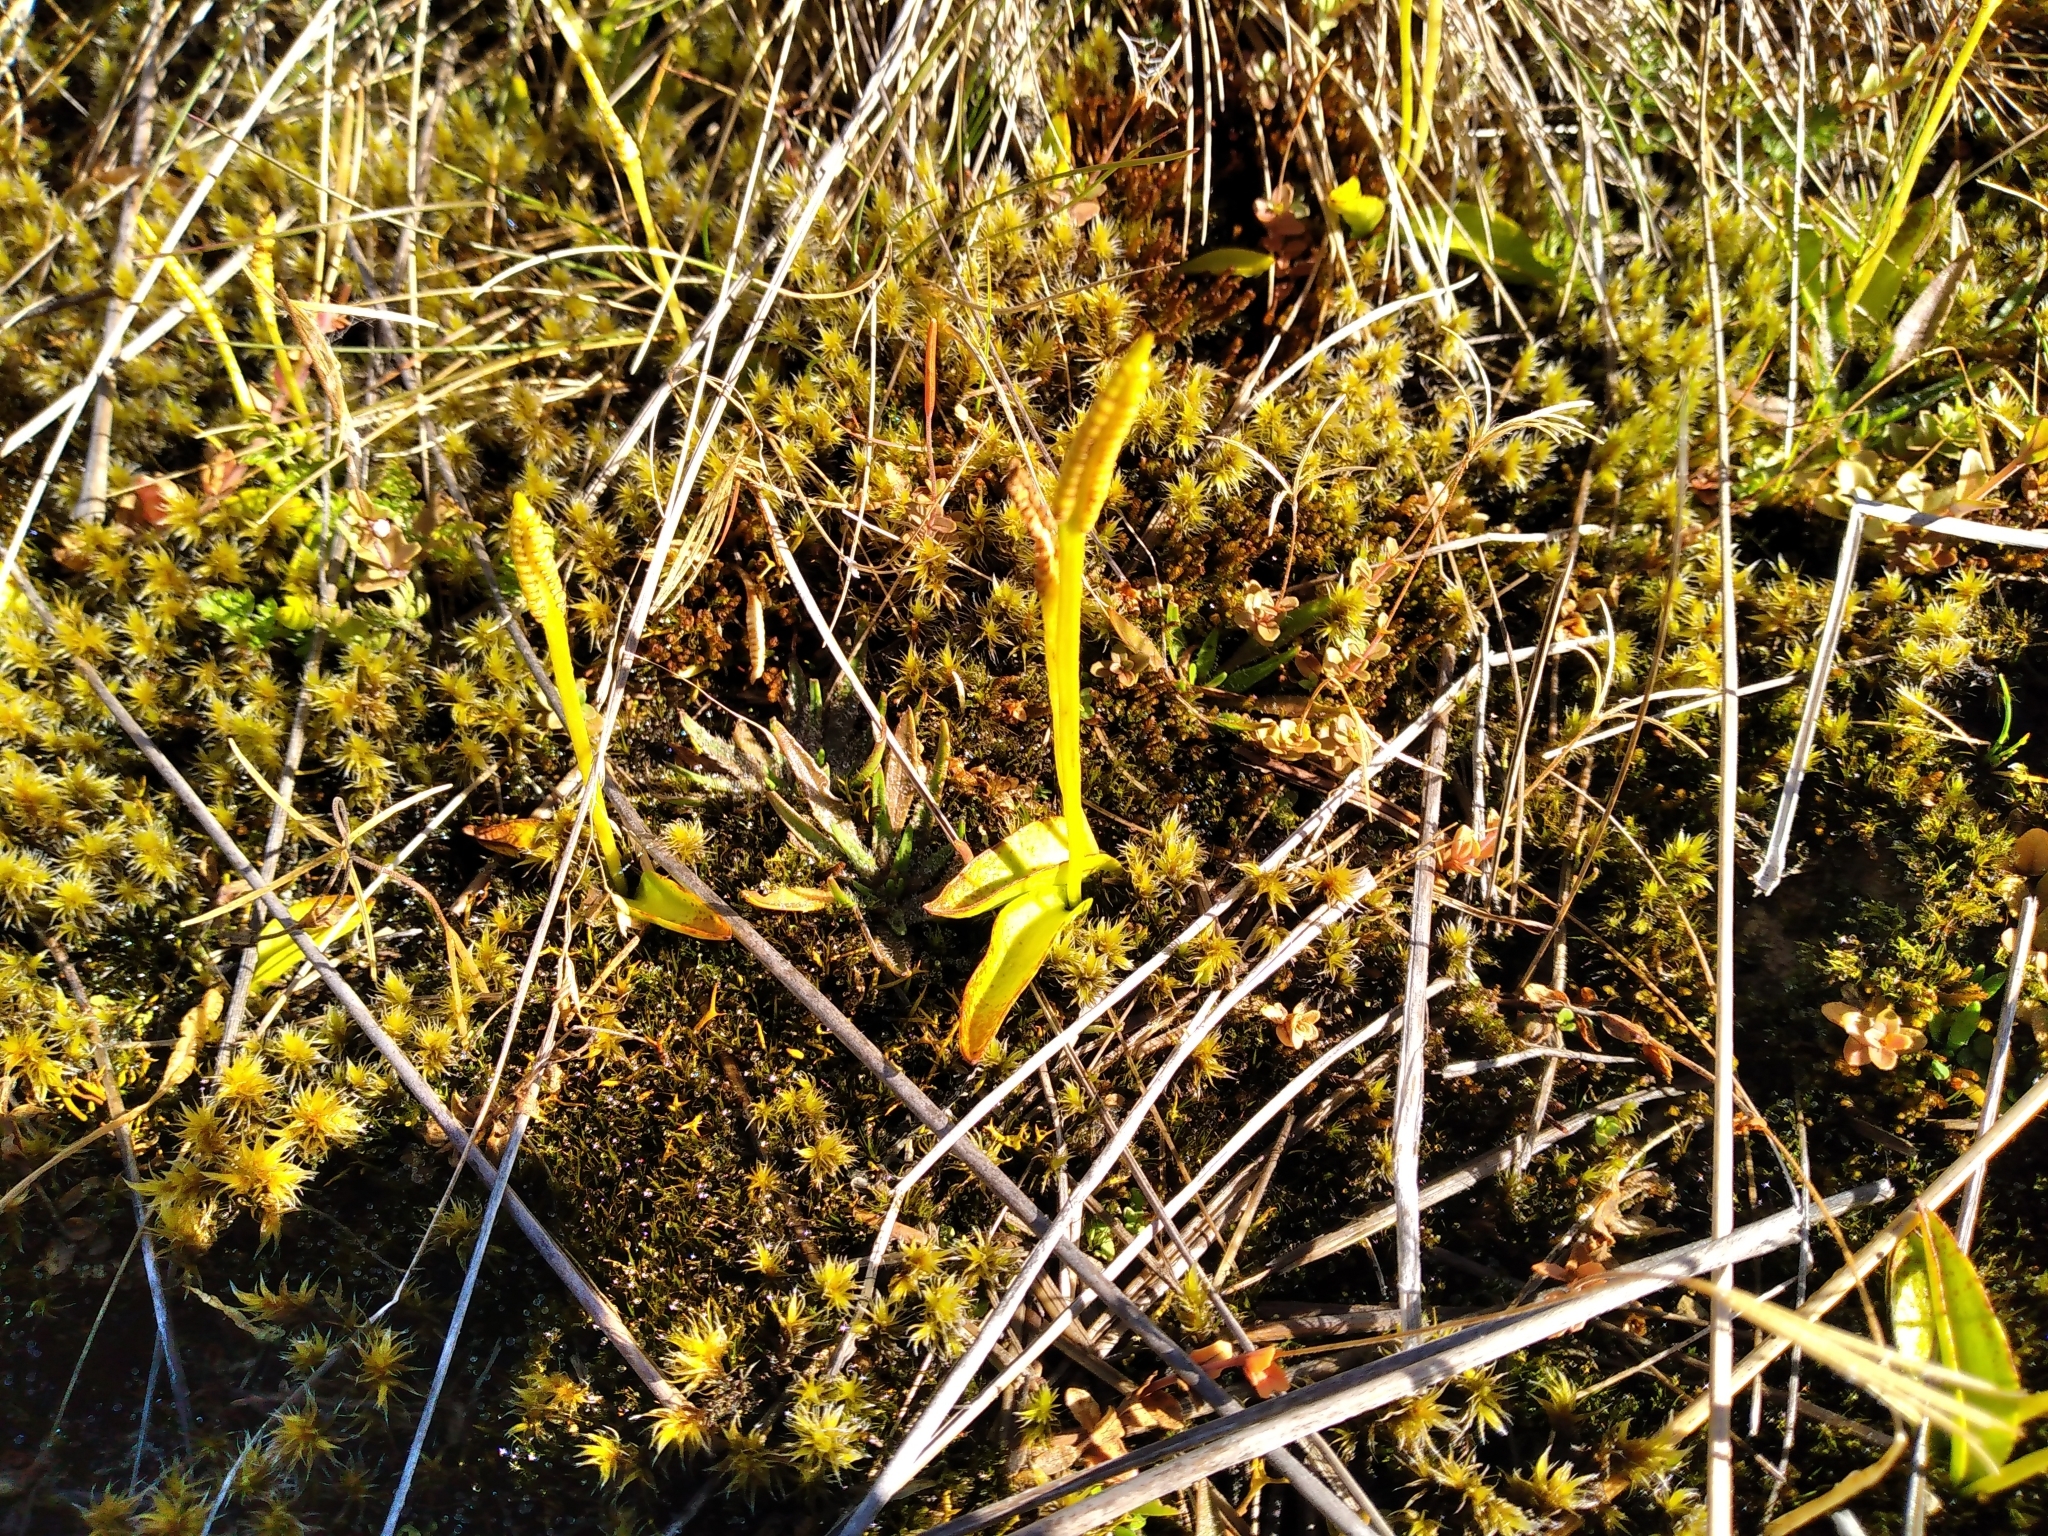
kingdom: Plantae
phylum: Tracheophyta
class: Polypodiopsida
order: Ophioglossales
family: Ophioglossaceae
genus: Ophioglossum
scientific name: Ophioglossum coriaceum
